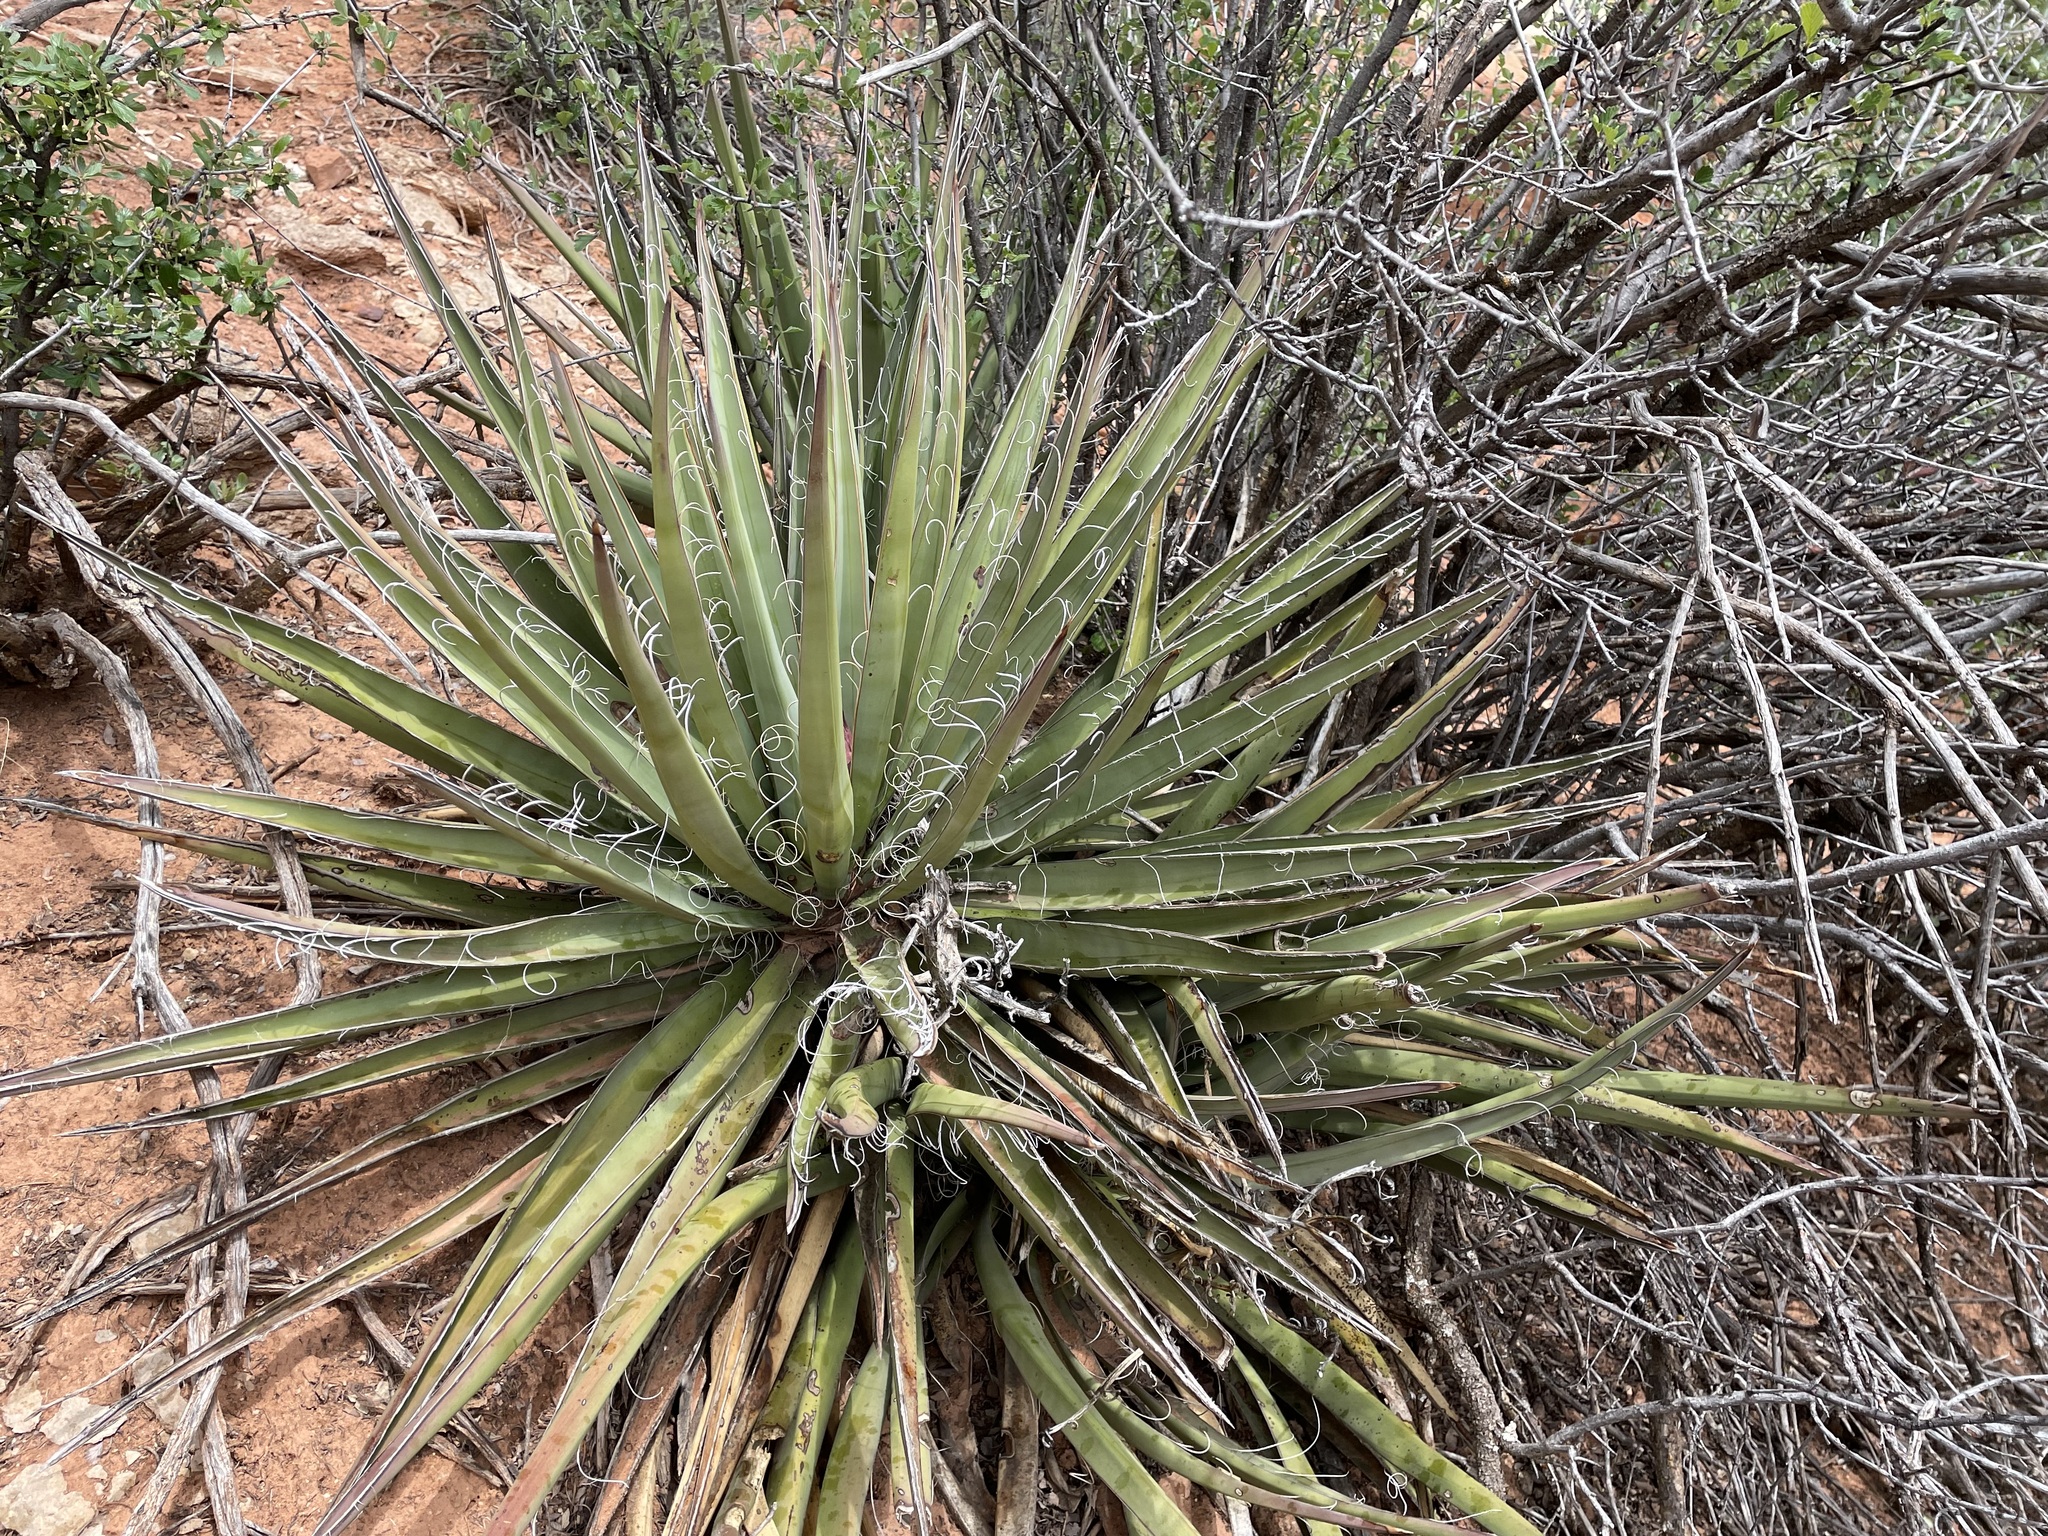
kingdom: Plantae
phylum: Tracheophyta
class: Liliopsida
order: Asparagales
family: Asparagaceae
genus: Yucca
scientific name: Yucca baccata
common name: Banana yucca
